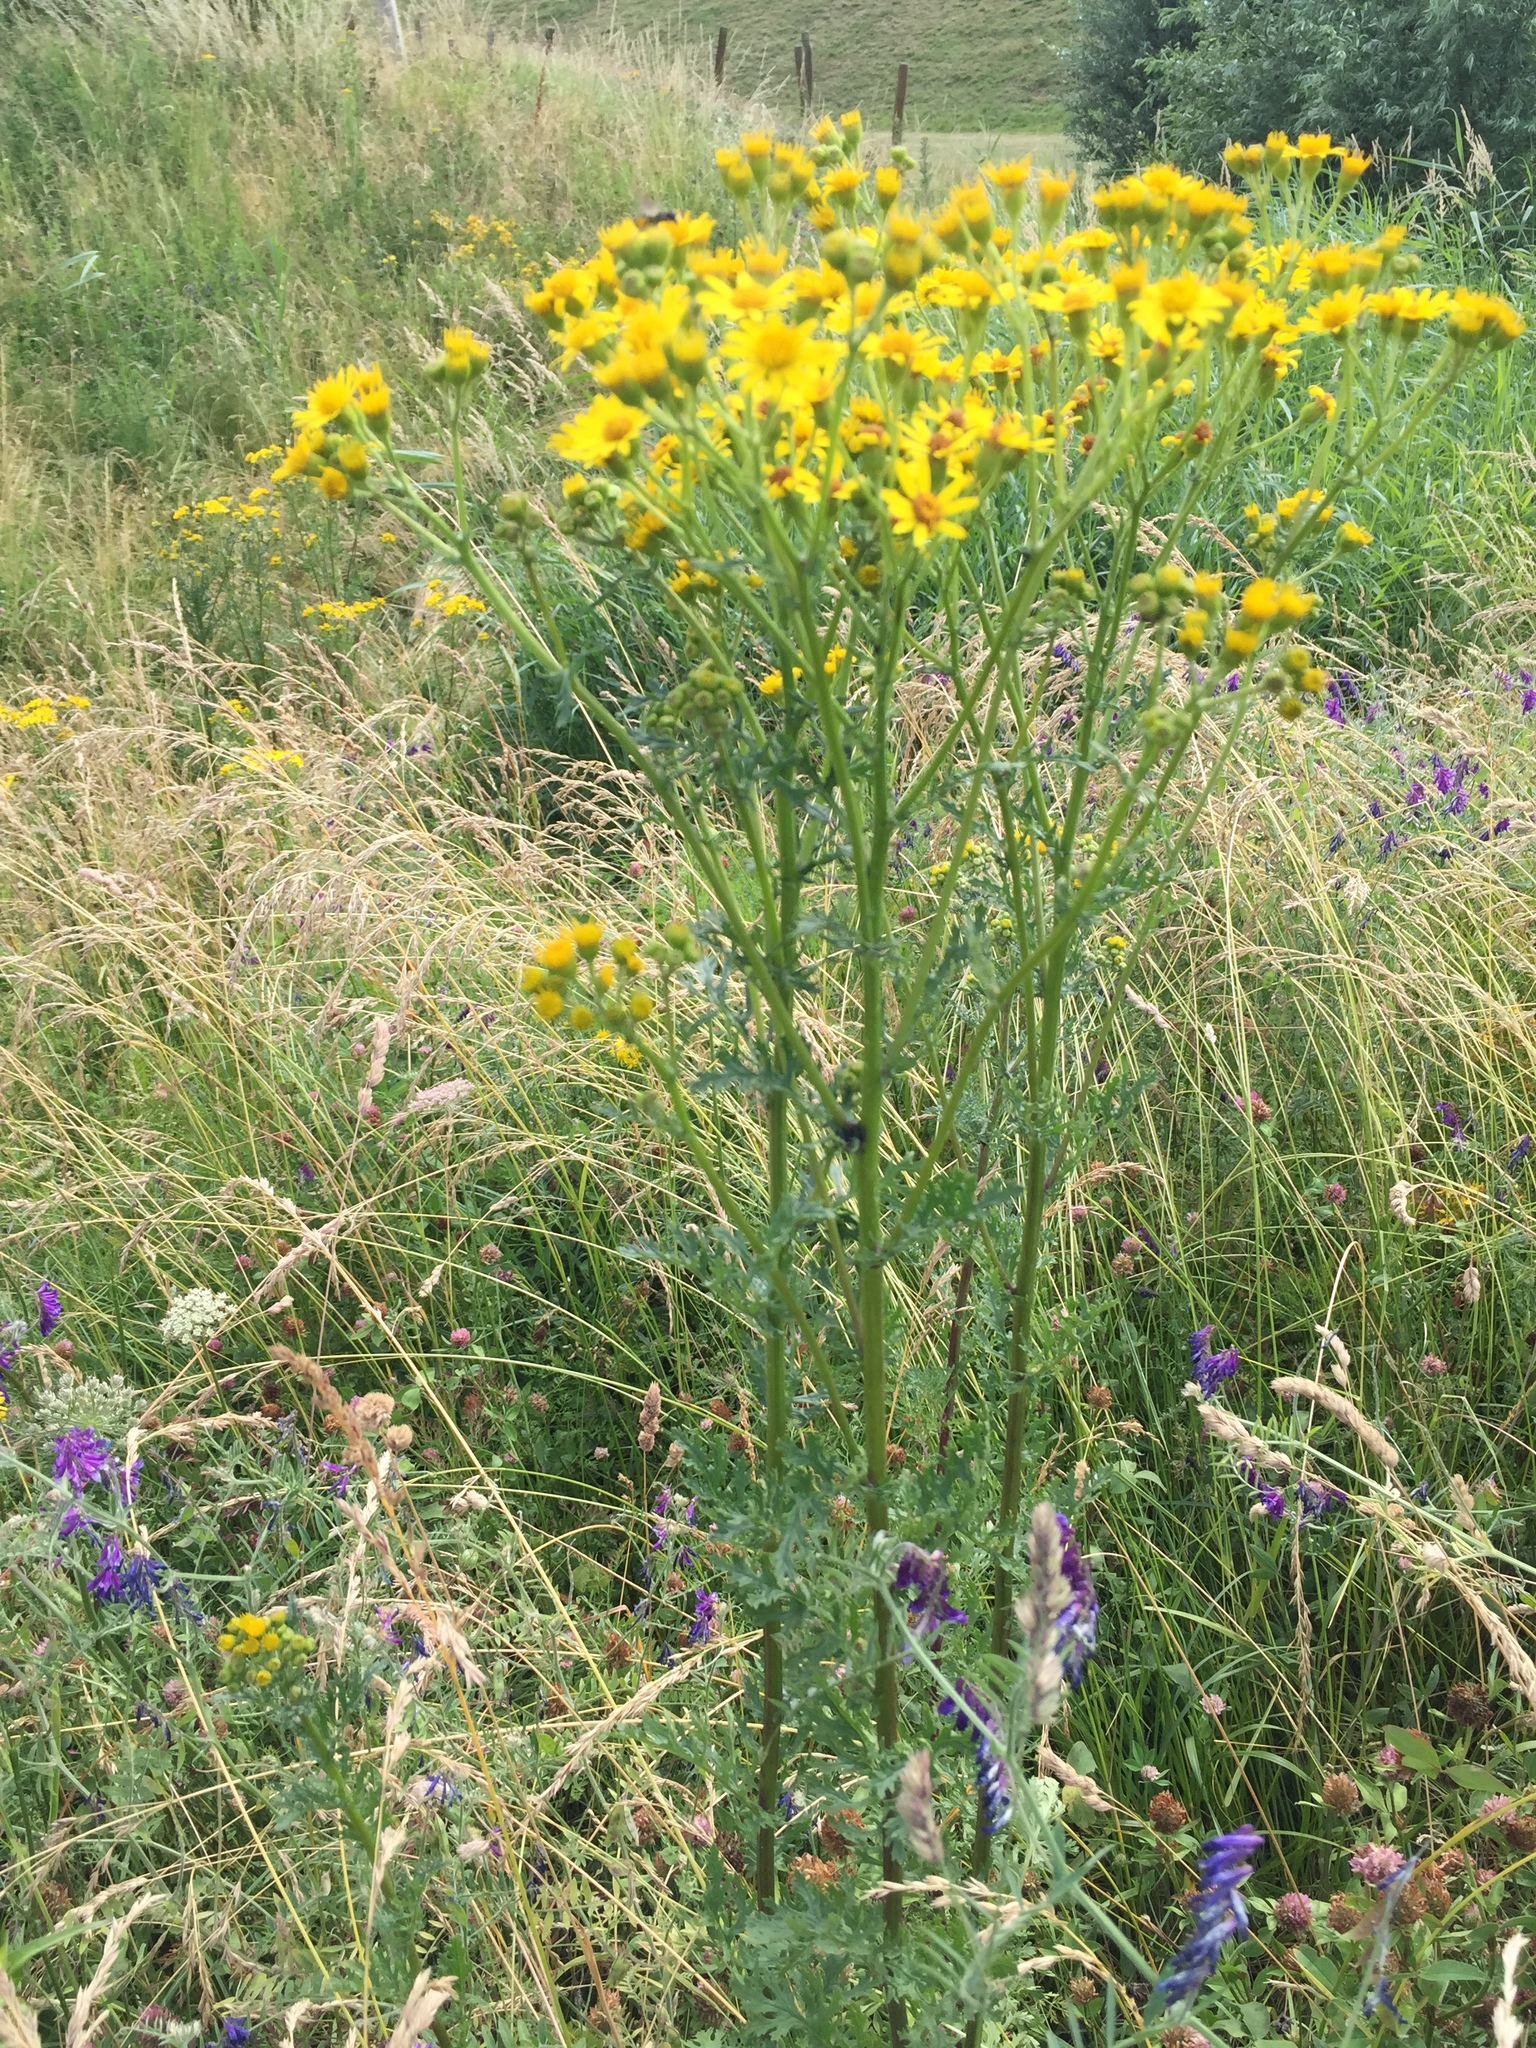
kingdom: Plantae
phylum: Tracheophyta
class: Magnoliopsida
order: Asterales
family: Asteraceae
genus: Jacobaea
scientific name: Jacobaea vulgaris
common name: Stinking willie
